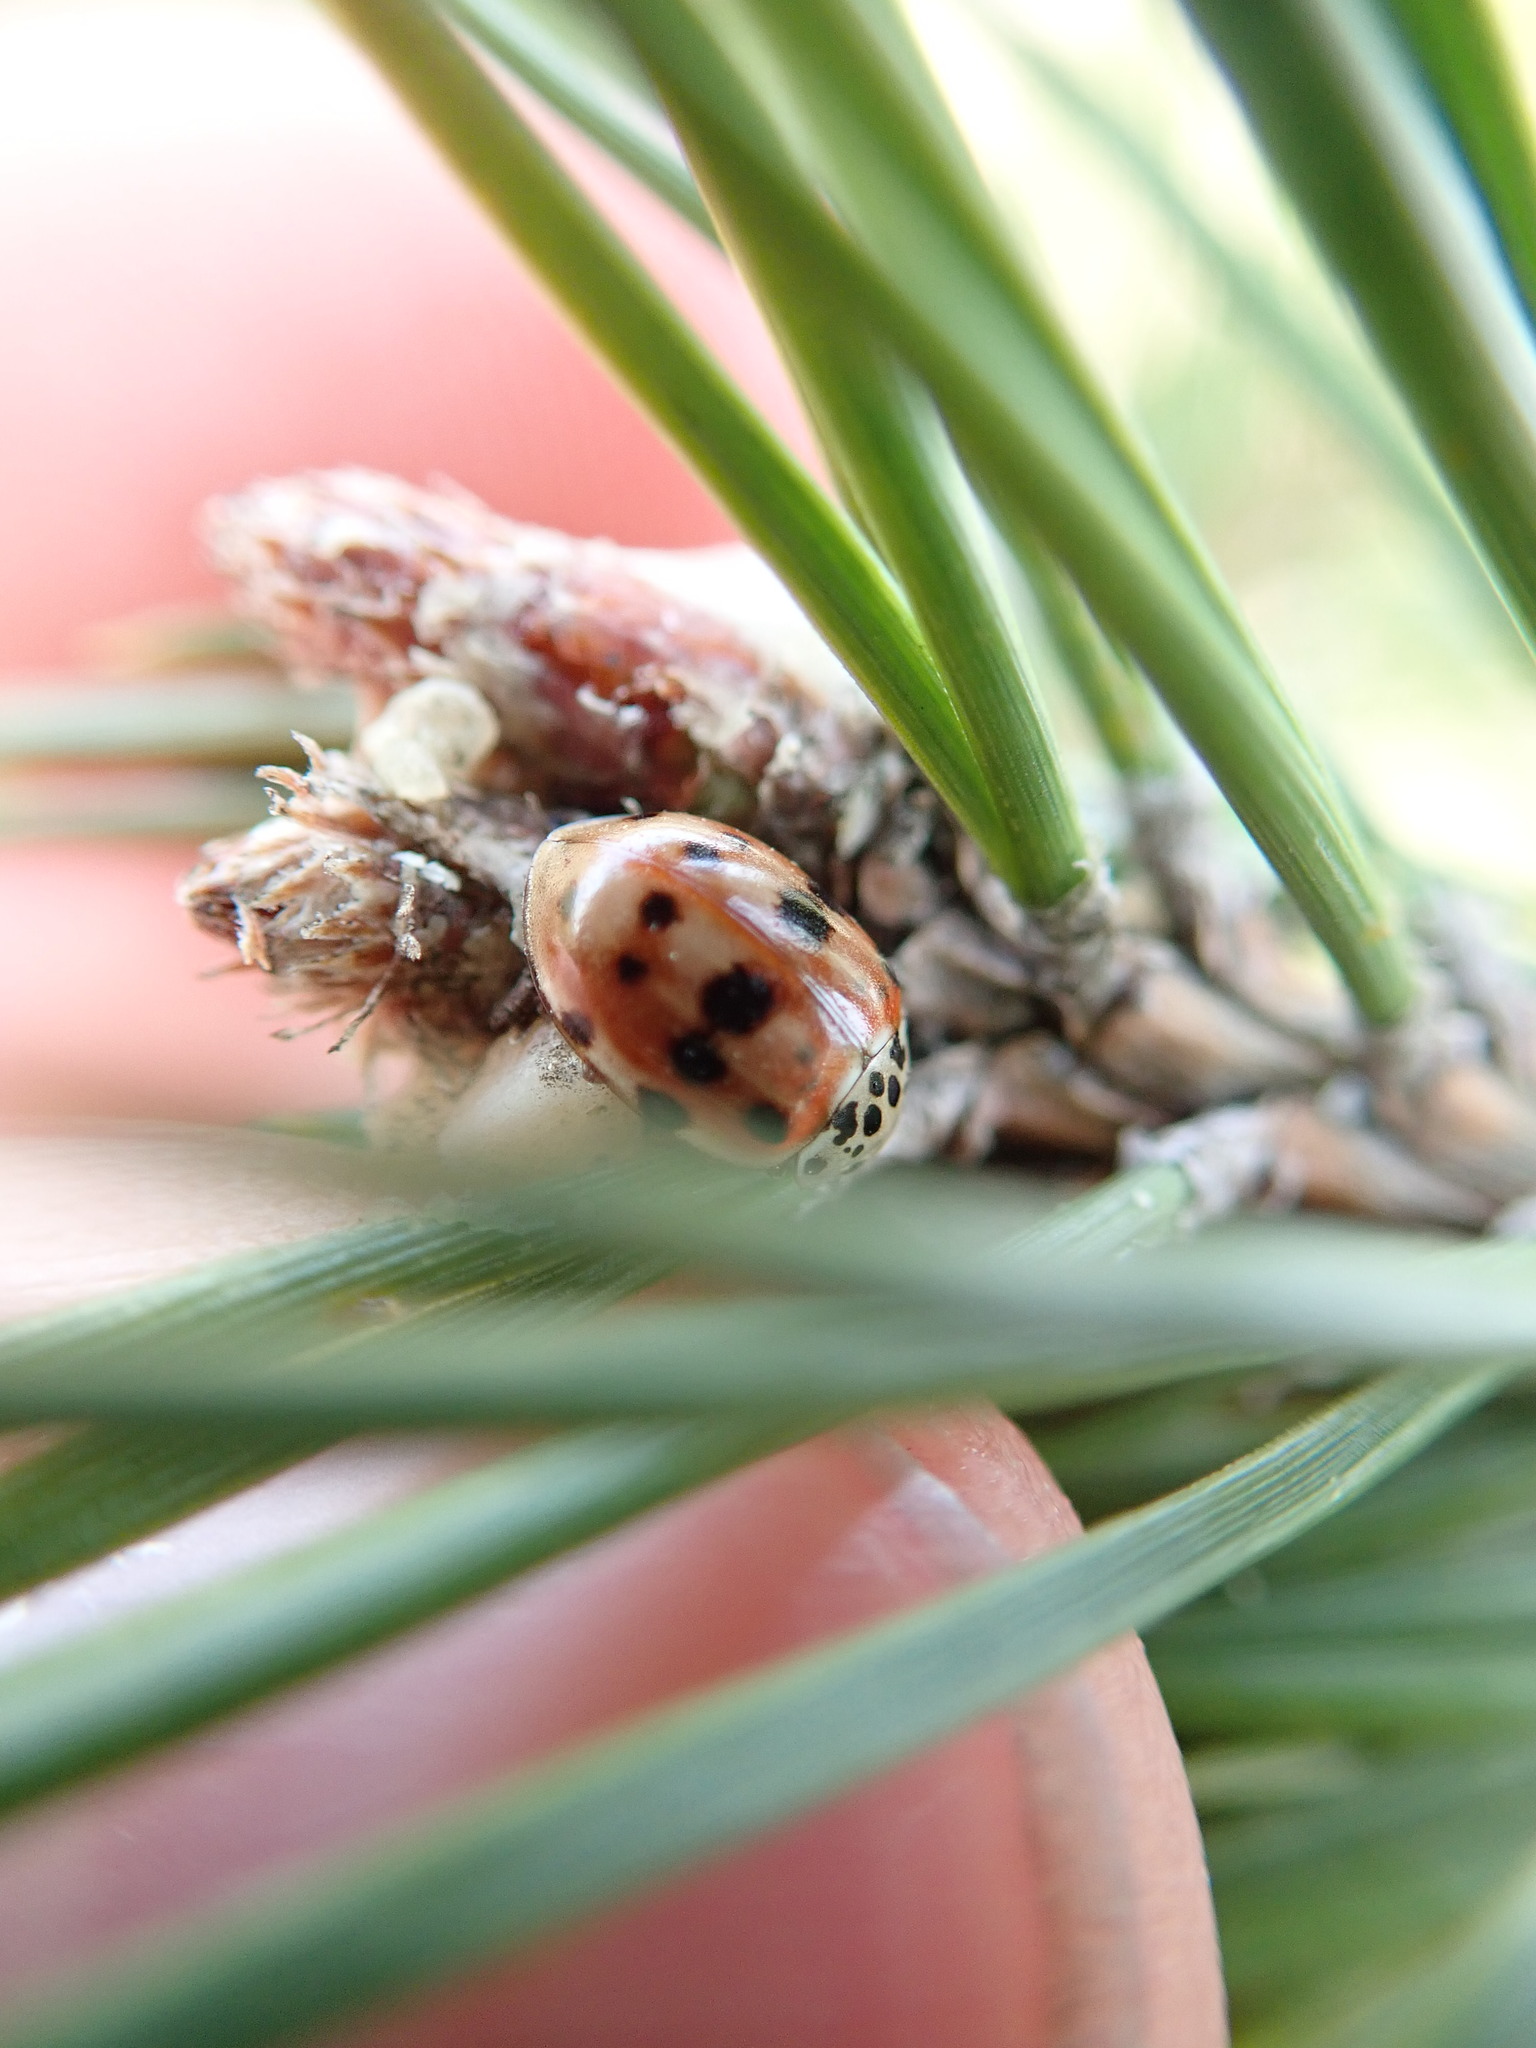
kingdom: Animalia
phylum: Arthropoda
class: Insecta
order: Coleoptera
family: Coccinellidae
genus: Harmonia
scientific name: Harmonia quadripunctata
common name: Cream-streaked ladybird
